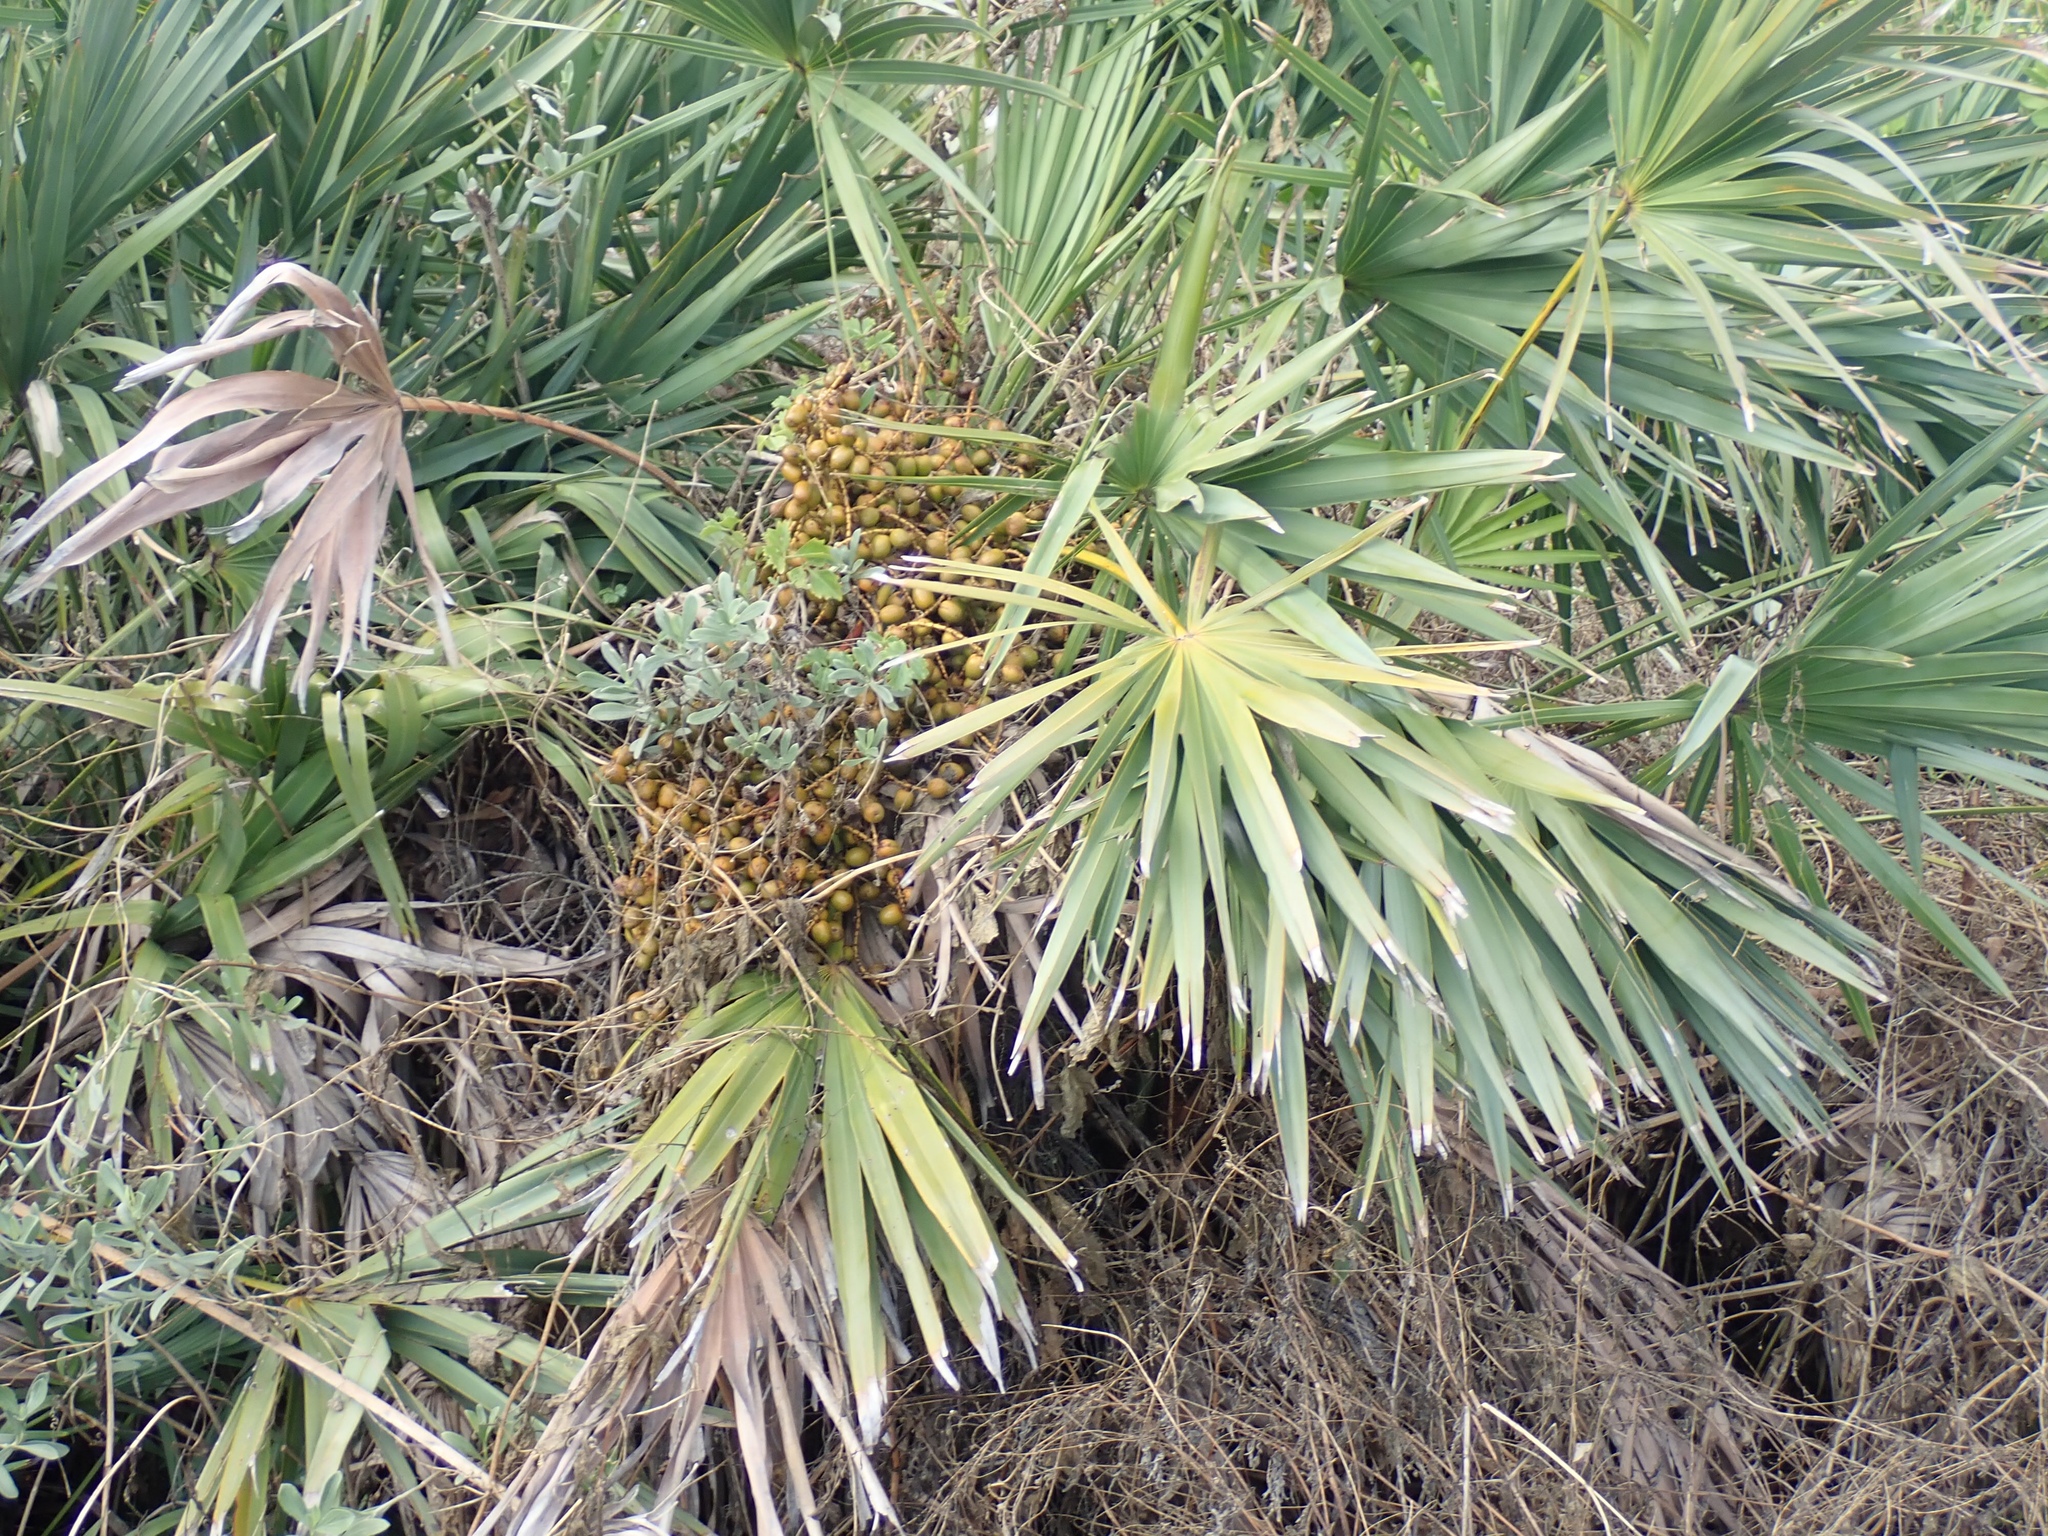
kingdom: Plantae
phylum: Tracheophyta
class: Liliopsida
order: Arecales
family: Arecaceae
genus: Serenoa
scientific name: Serenoa repens
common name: Saw-palmetto
